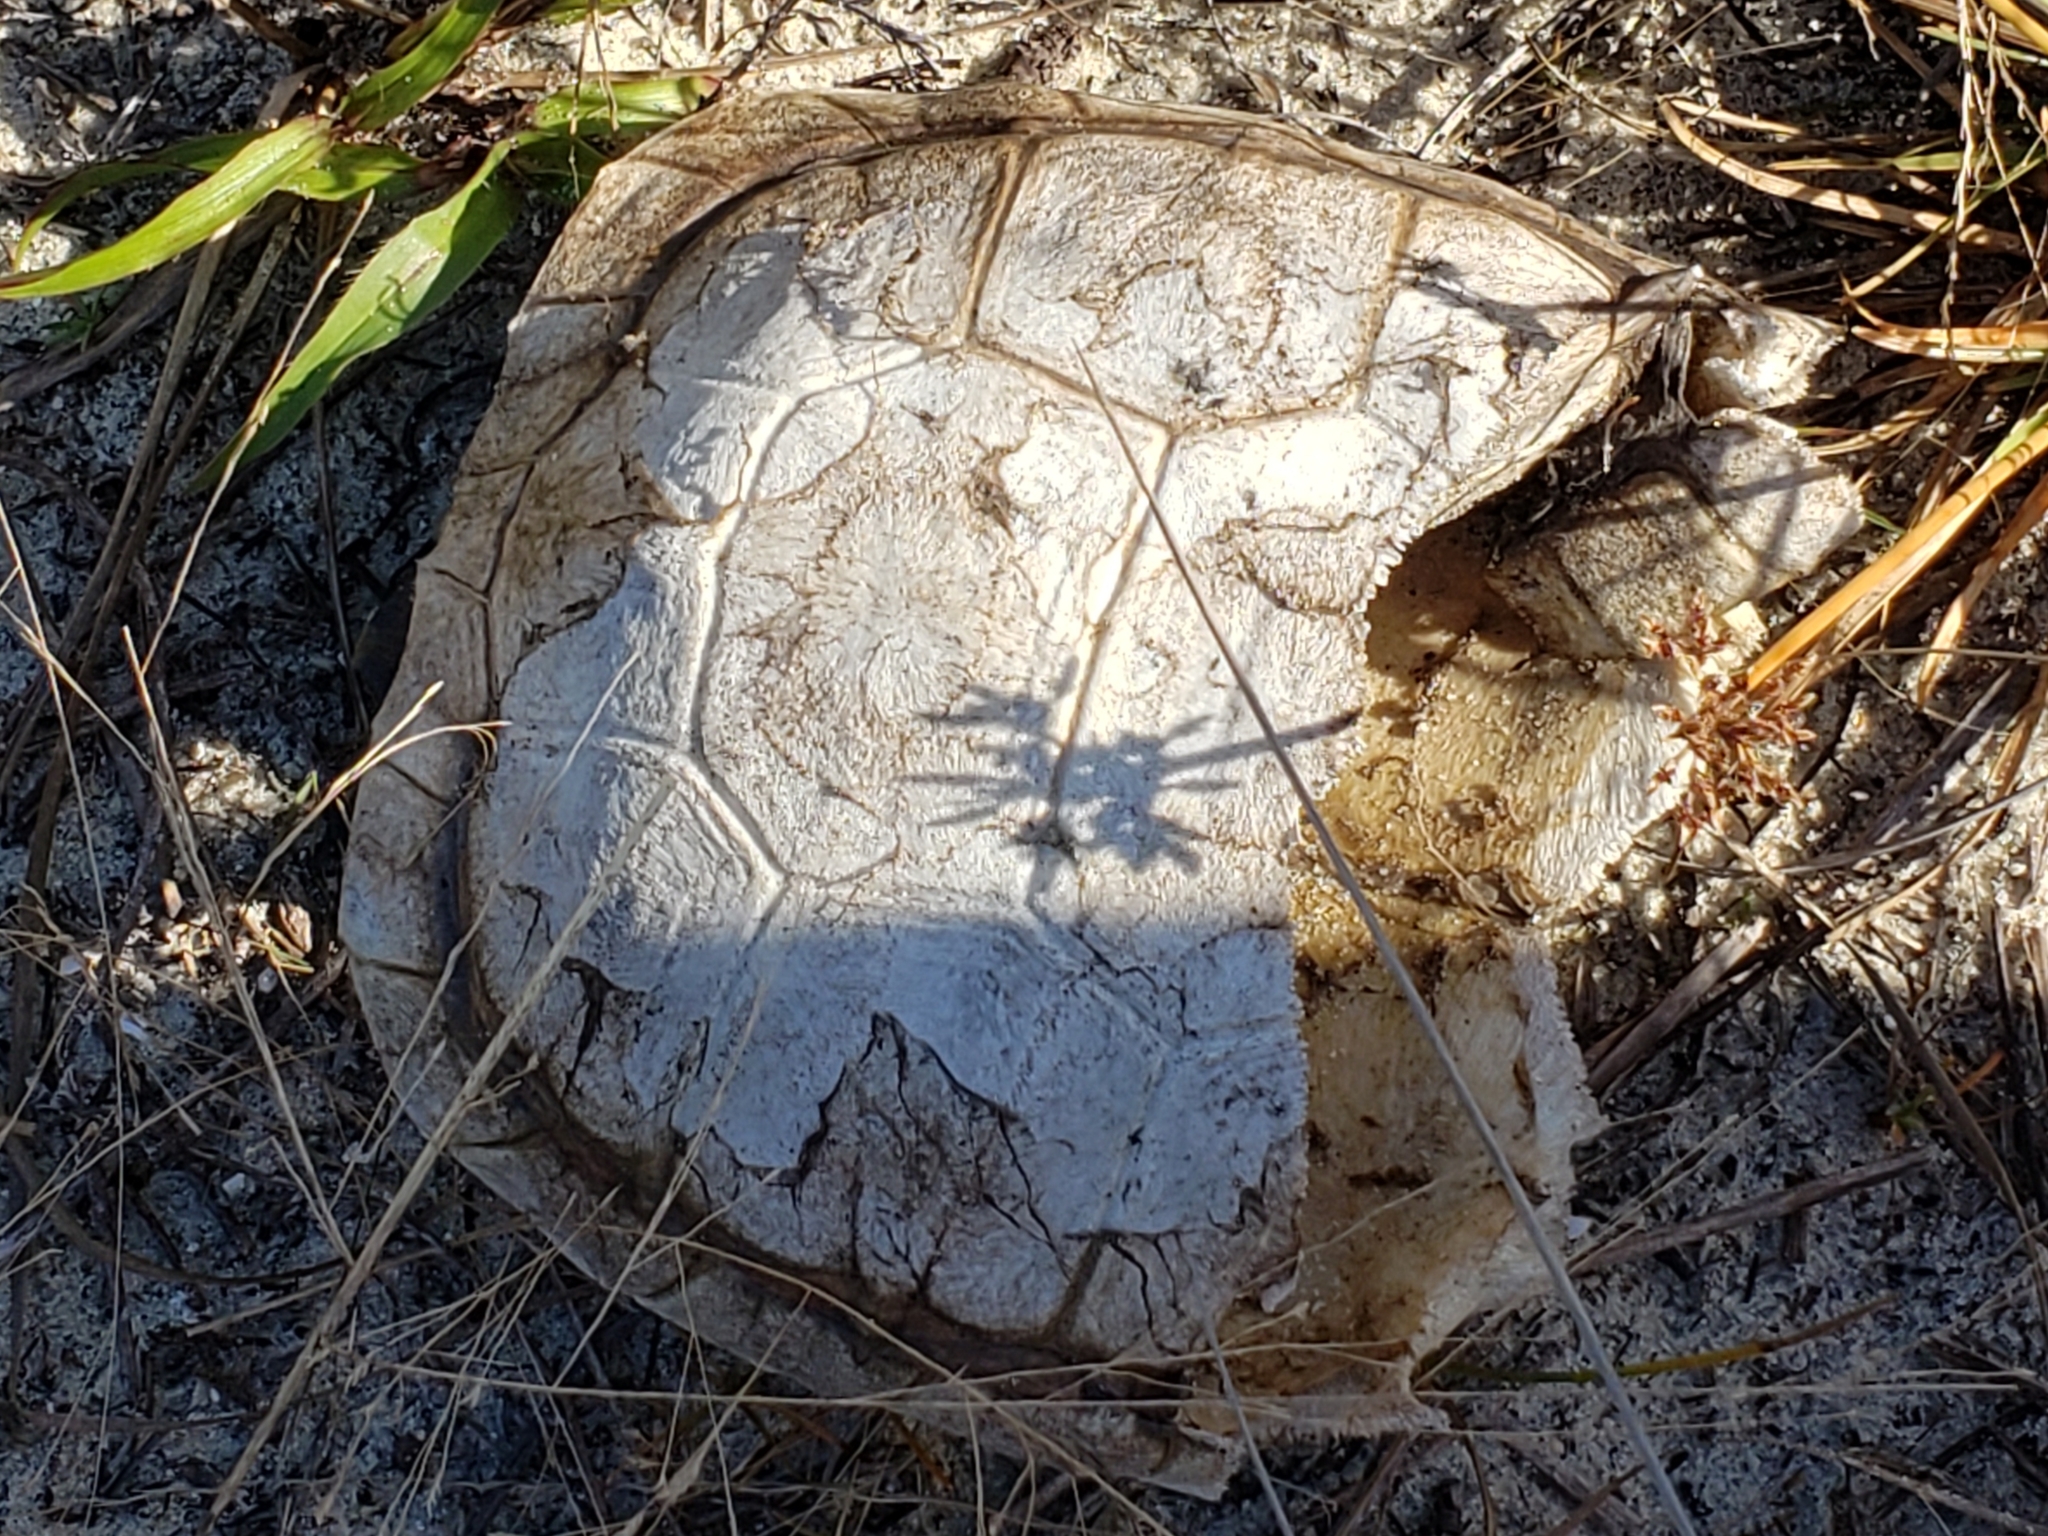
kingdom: Animalia
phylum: Chordata
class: Testudines
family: Testudinidae
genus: Gopherus
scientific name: Gopherus polyphemus
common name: Florida gopher tortoise
